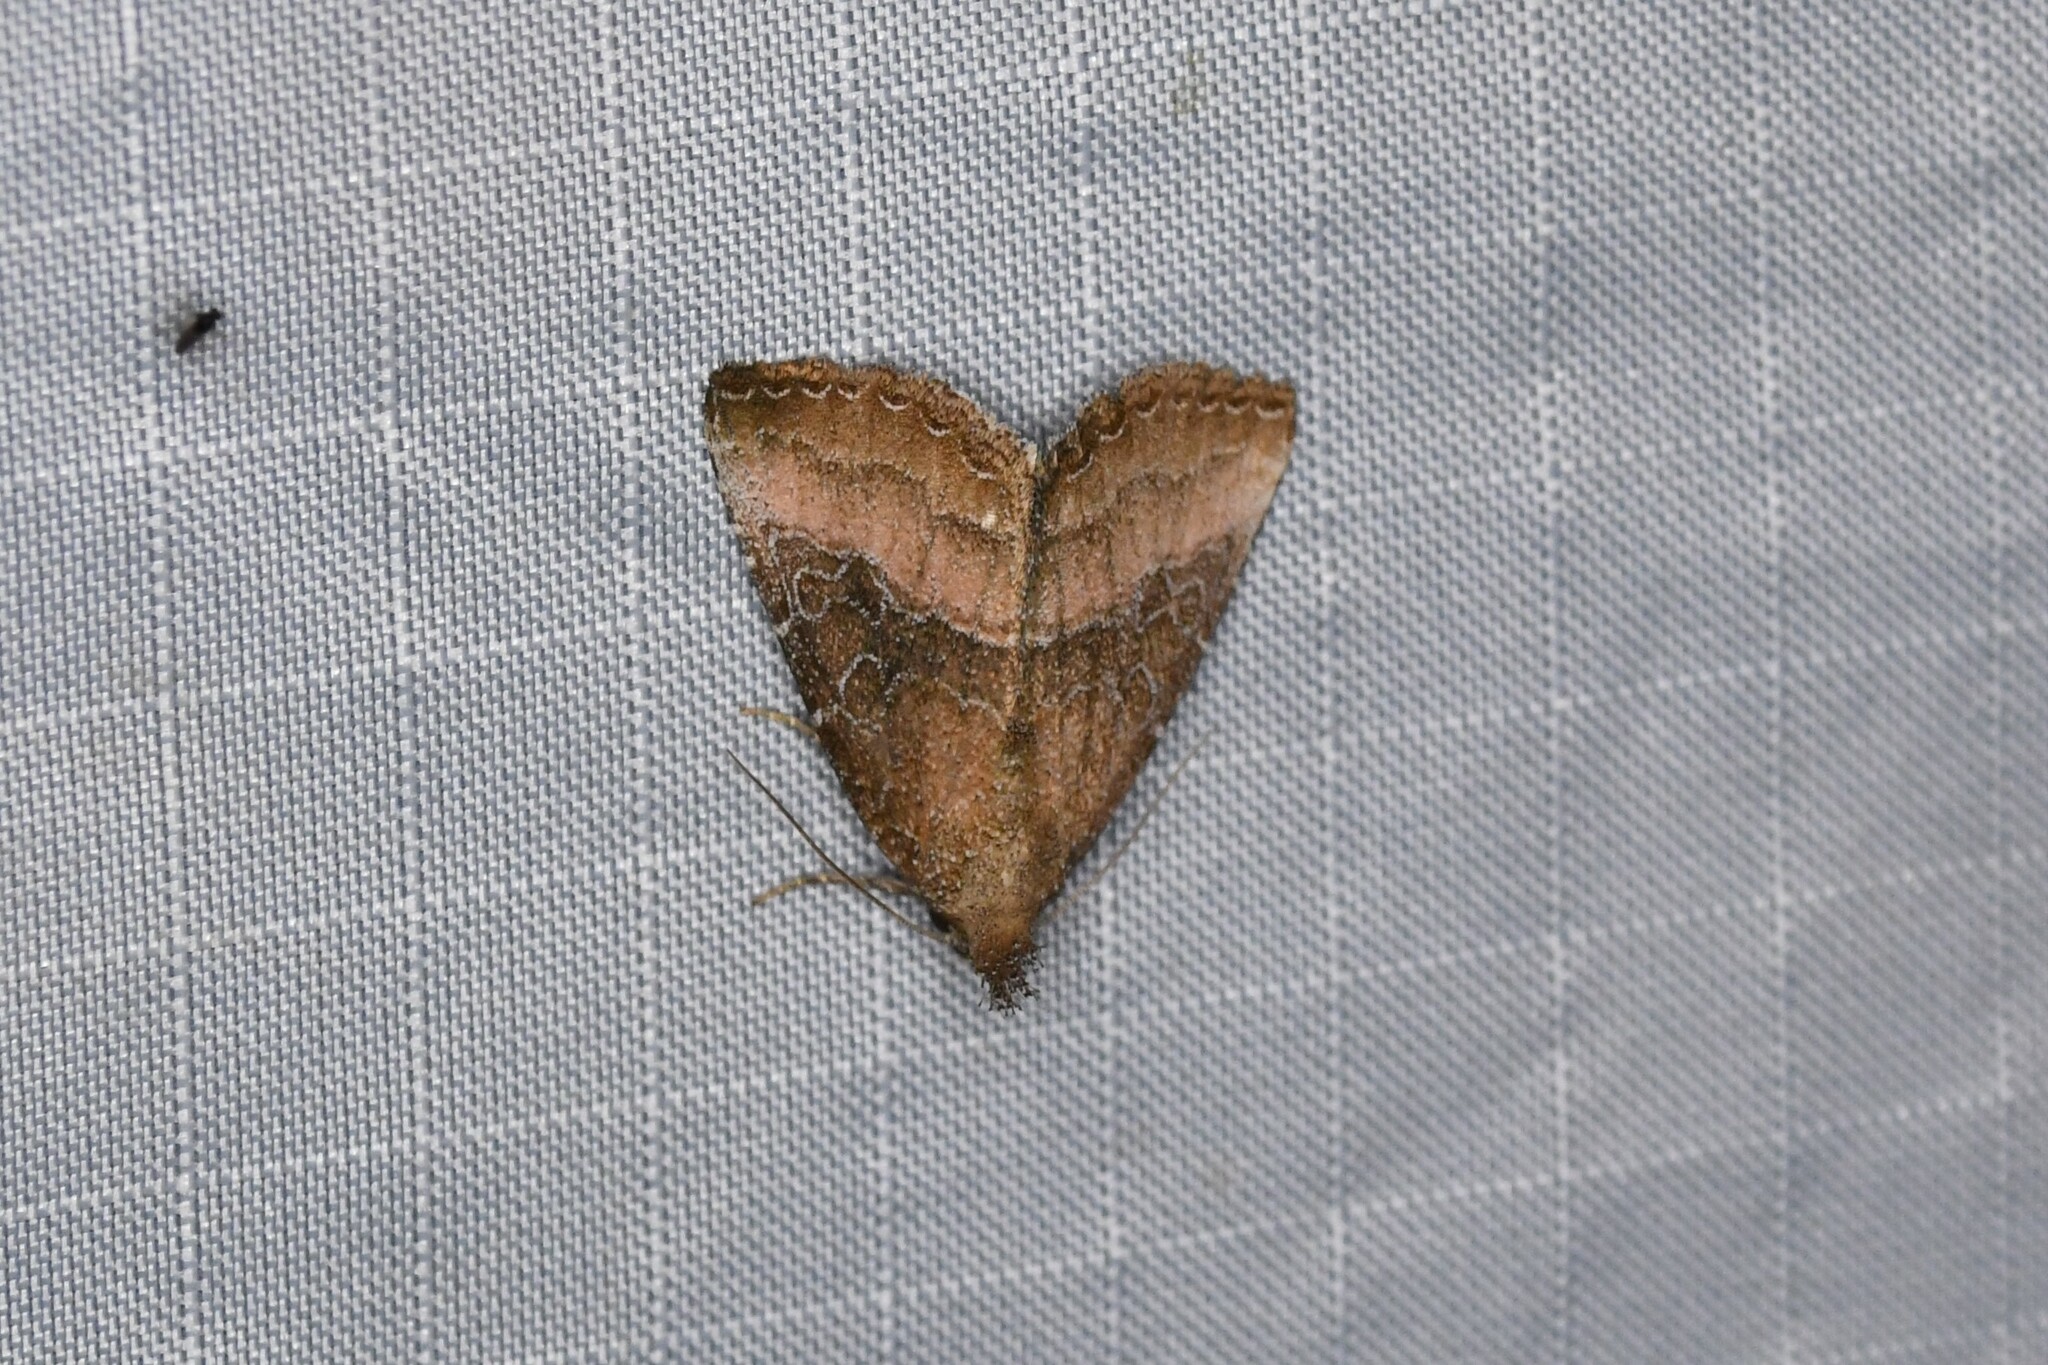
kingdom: Animalia
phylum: Arthropoda
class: Insecta
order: Lepidoptera
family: Noctuidae
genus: Ogdoconta
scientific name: Ogdoconta cinereola
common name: Common pinkband
